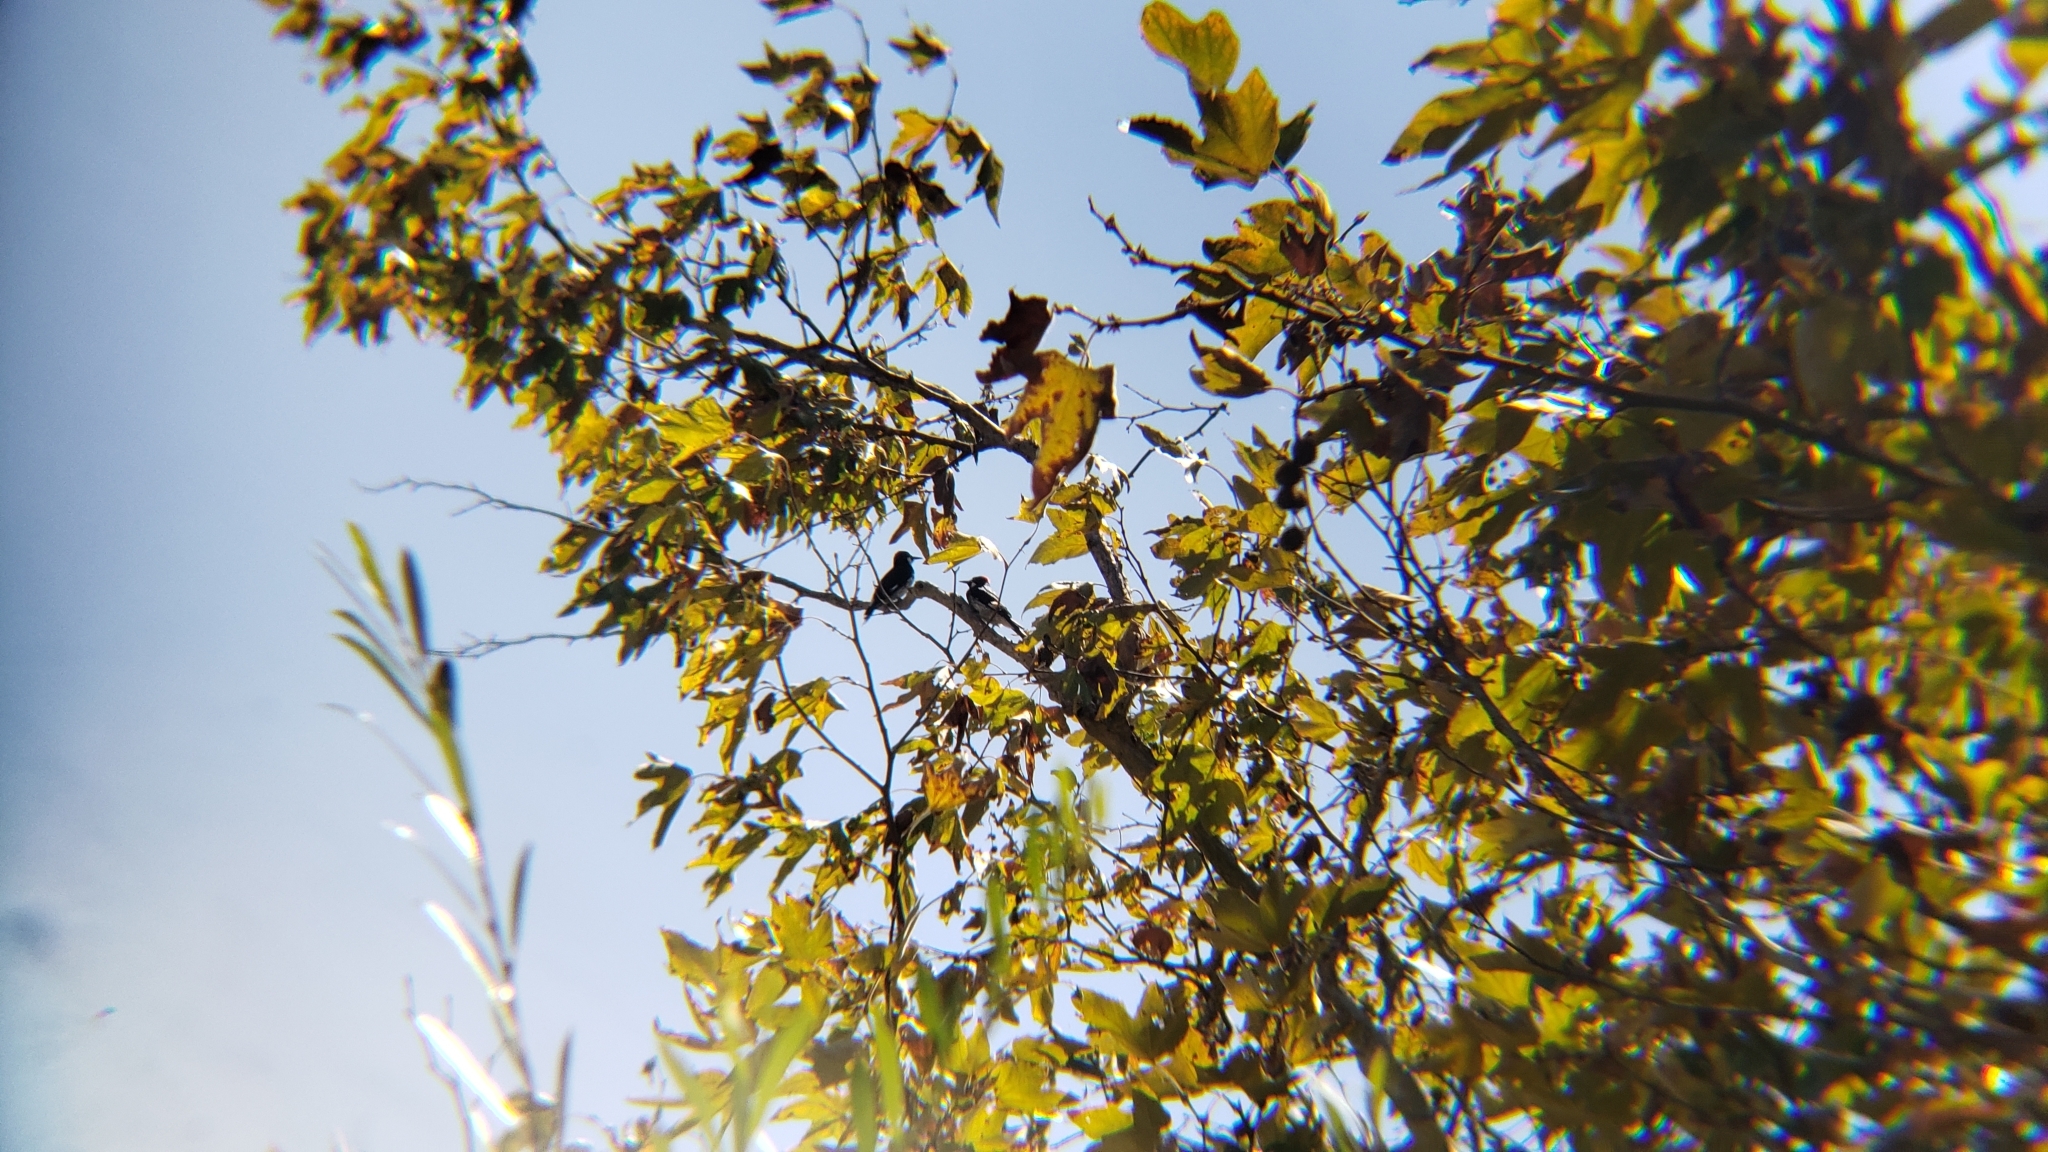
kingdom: Animalia
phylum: Chordata
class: Aves
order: Piciformes
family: Picidae
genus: Melanerpes
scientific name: Melanerpes formicivorus
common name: Acorn woodpecker
